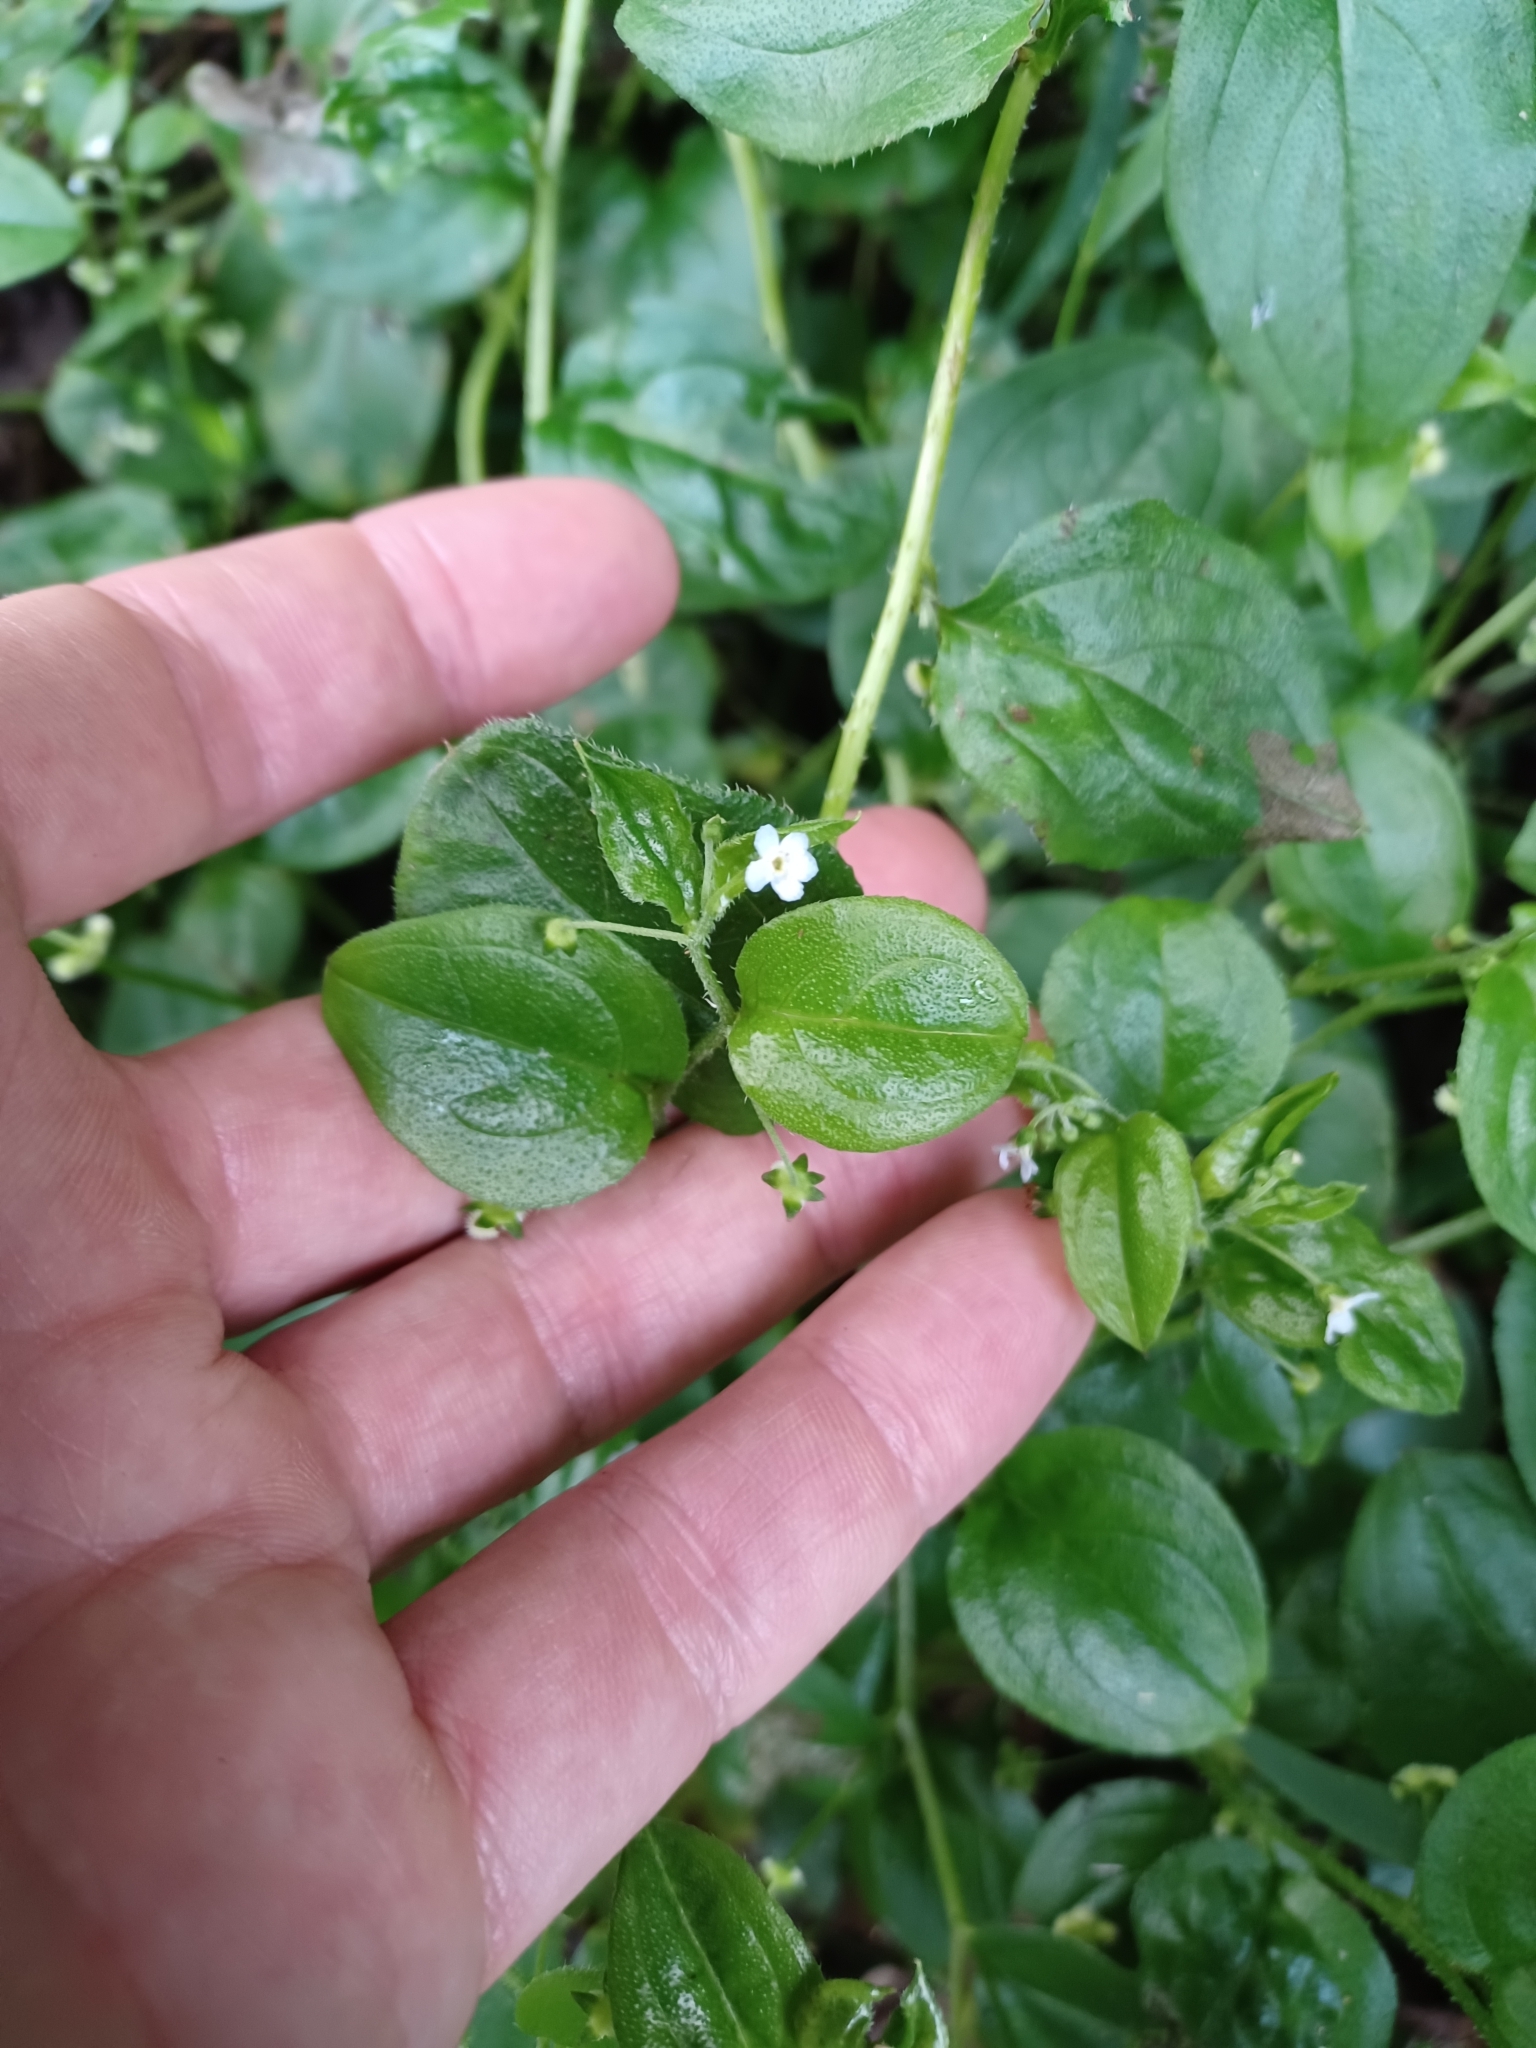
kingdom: Plantae
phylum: Tracheophyta
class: Magnoliopsida
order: Boraginales
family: Boraginaceae
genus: Hackelia
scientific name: Hackelia latifolia
